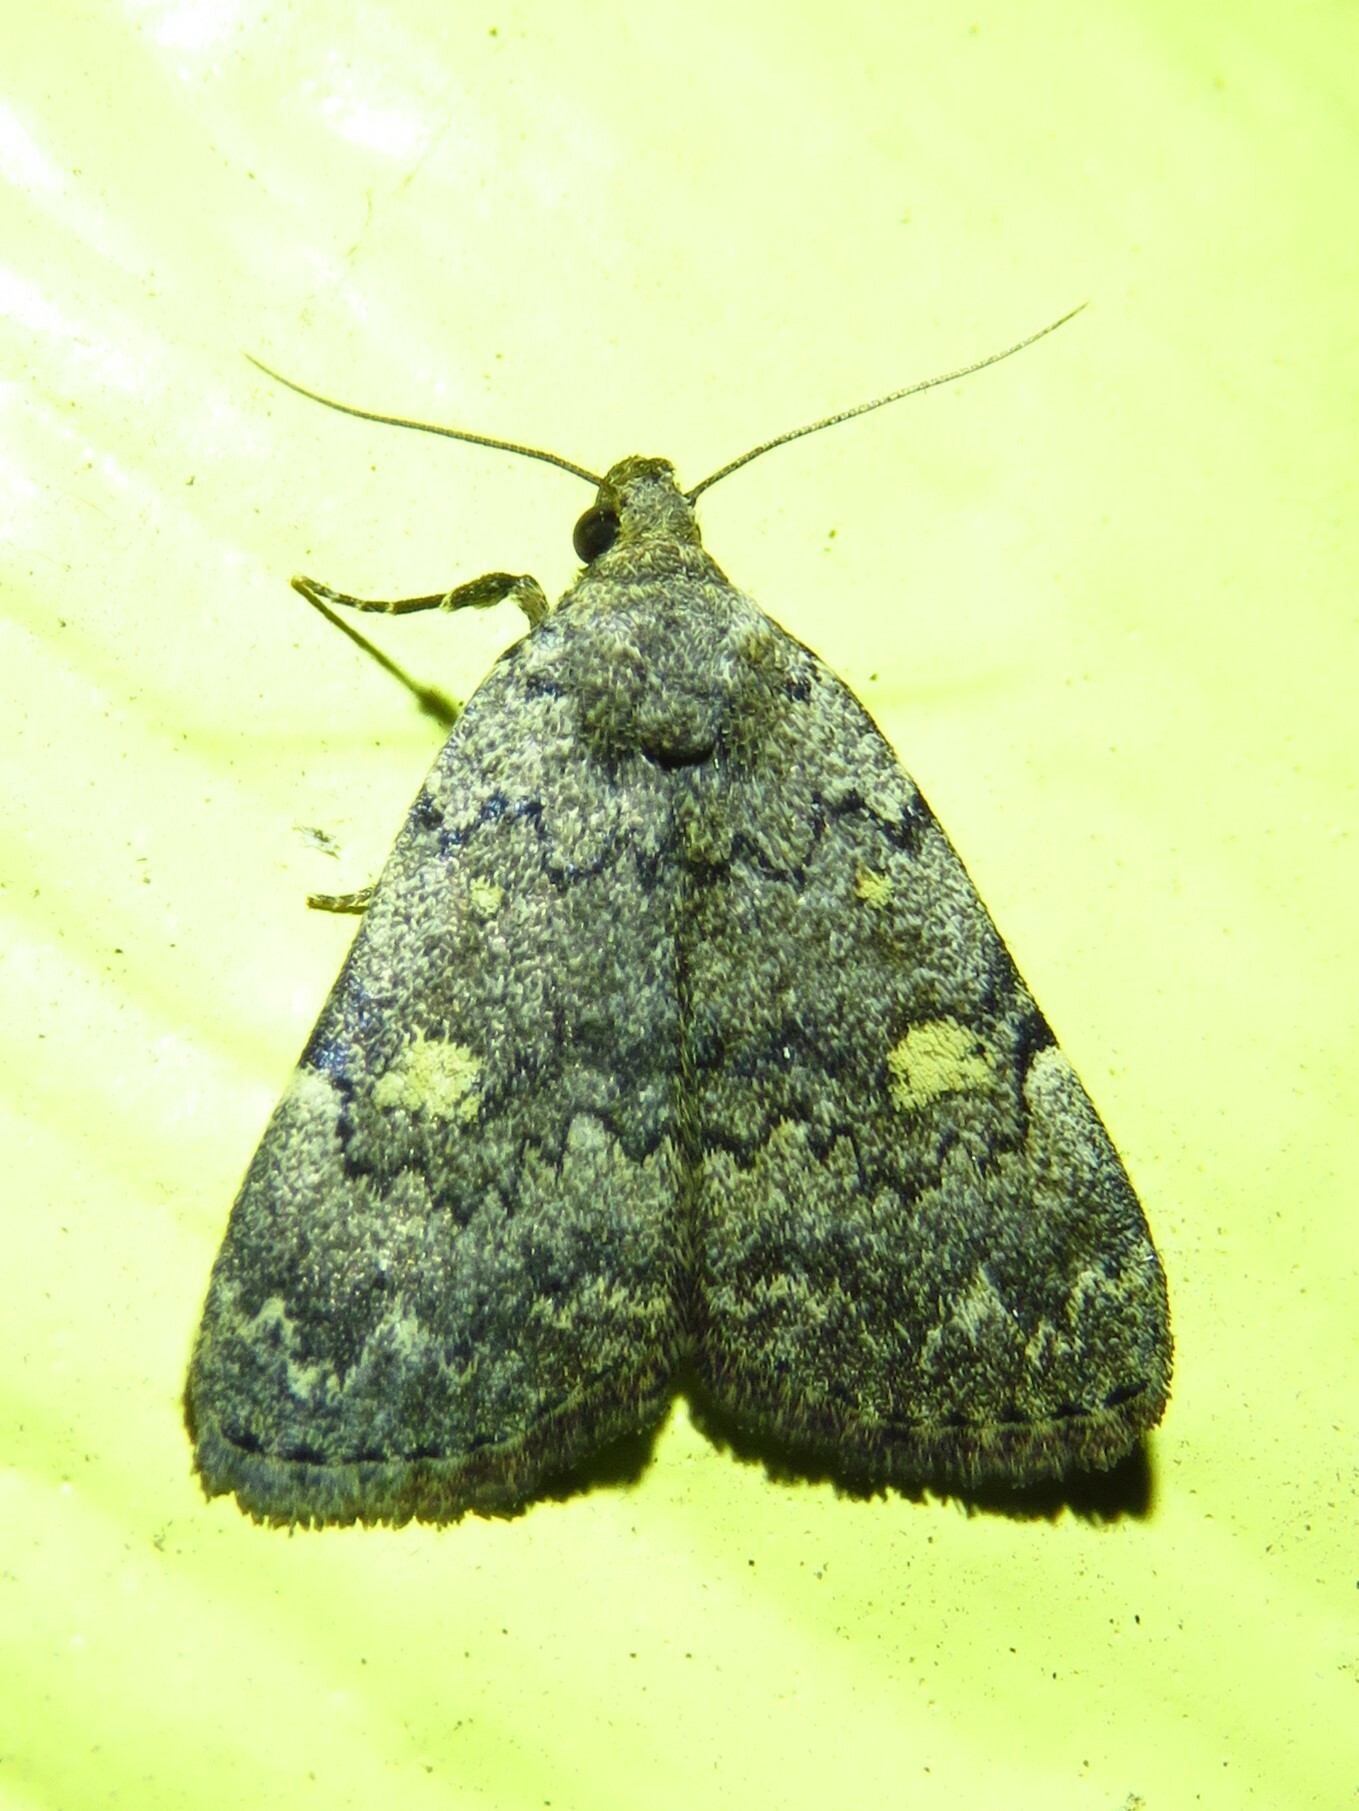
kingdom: Animalia
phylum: Arthropoda
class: Insecta
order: Lepidoptera
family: Erebidae
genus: Idia
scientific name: Idia aemula
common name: Common idia moth
